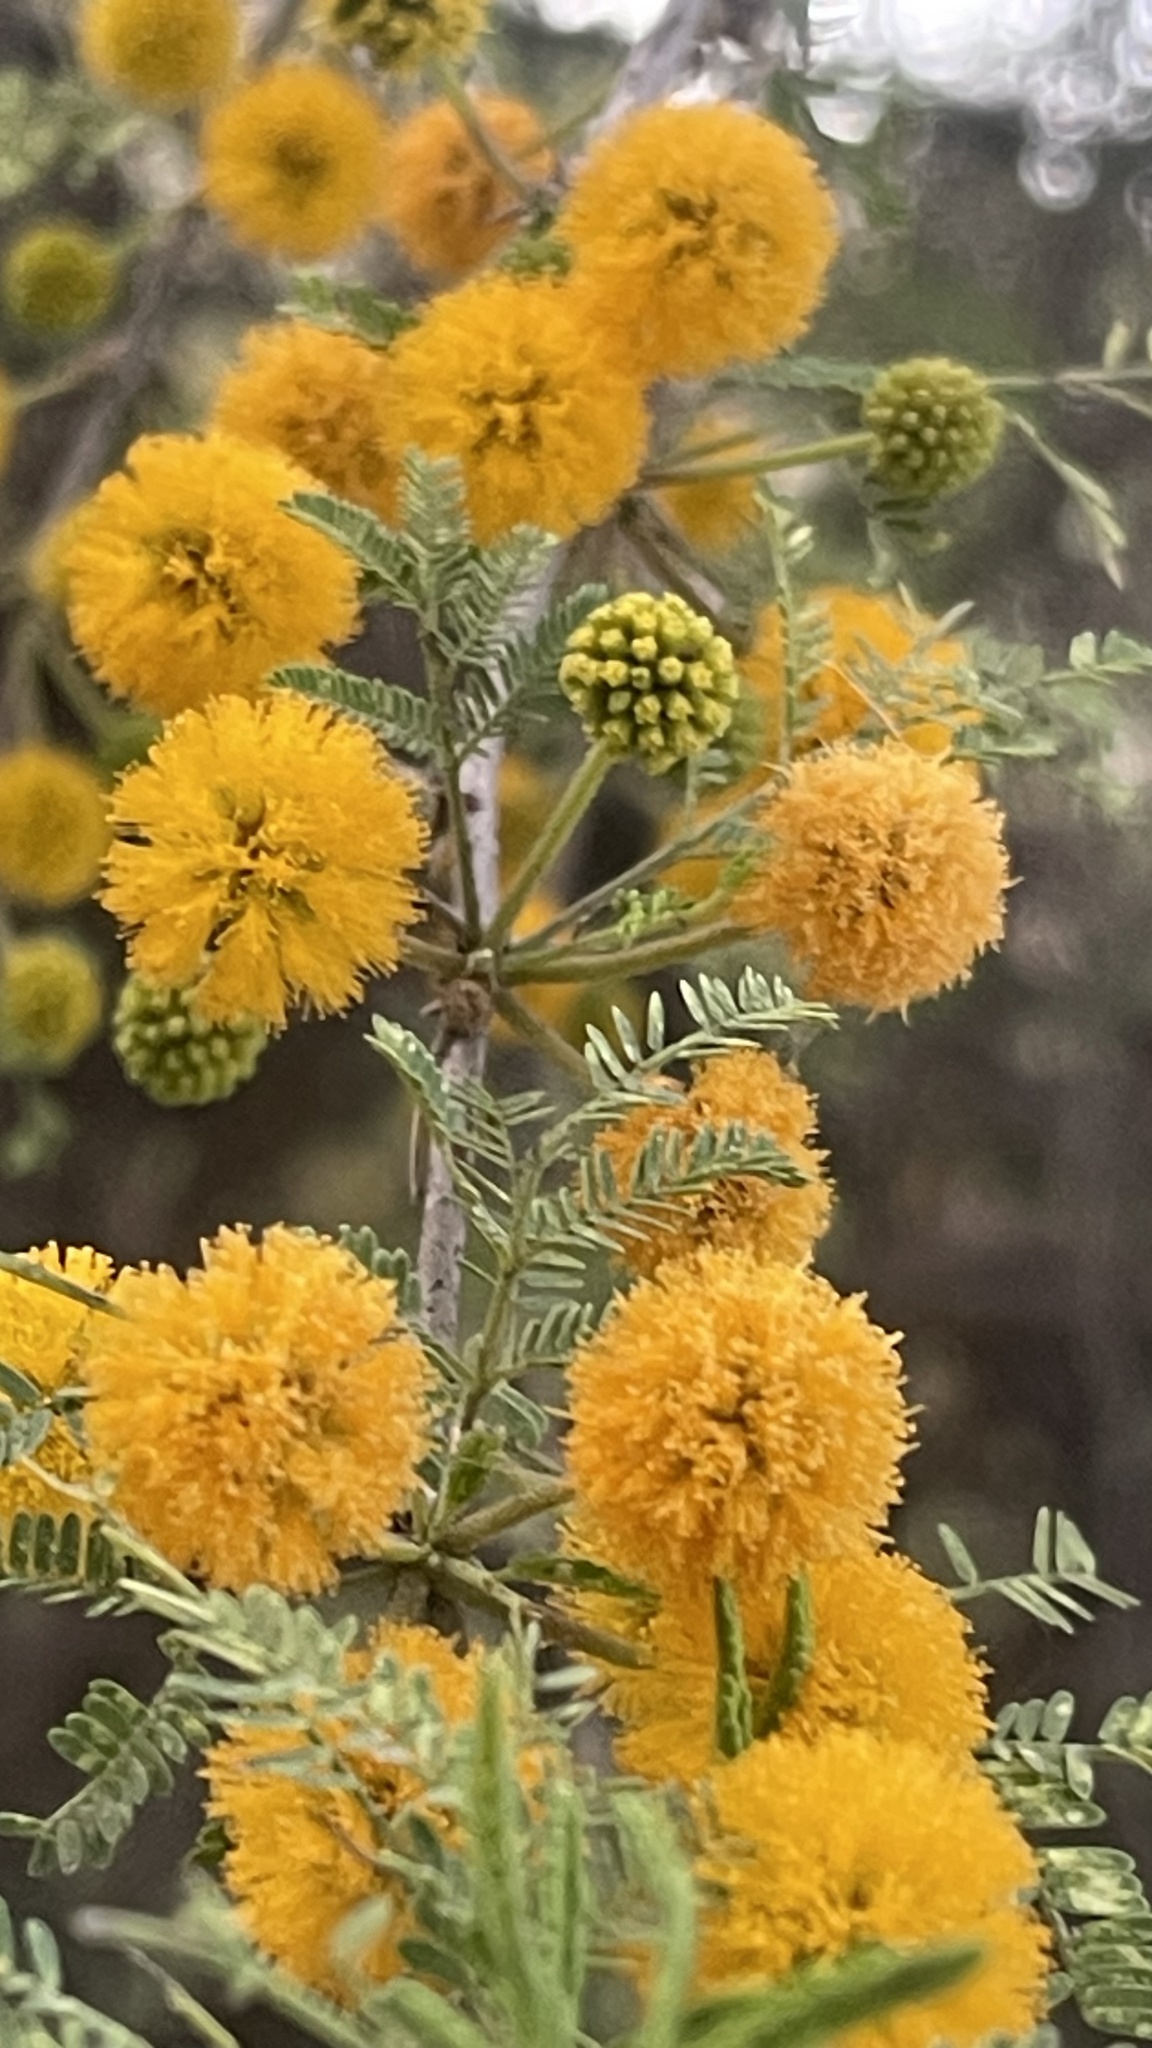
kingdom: Plantae
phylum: Tracheophyta
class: Magnoliopsida
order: Fabales
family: Fabaceae
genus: Vachellia
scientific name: Vachellia farnesiana
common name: Sweet acacia
